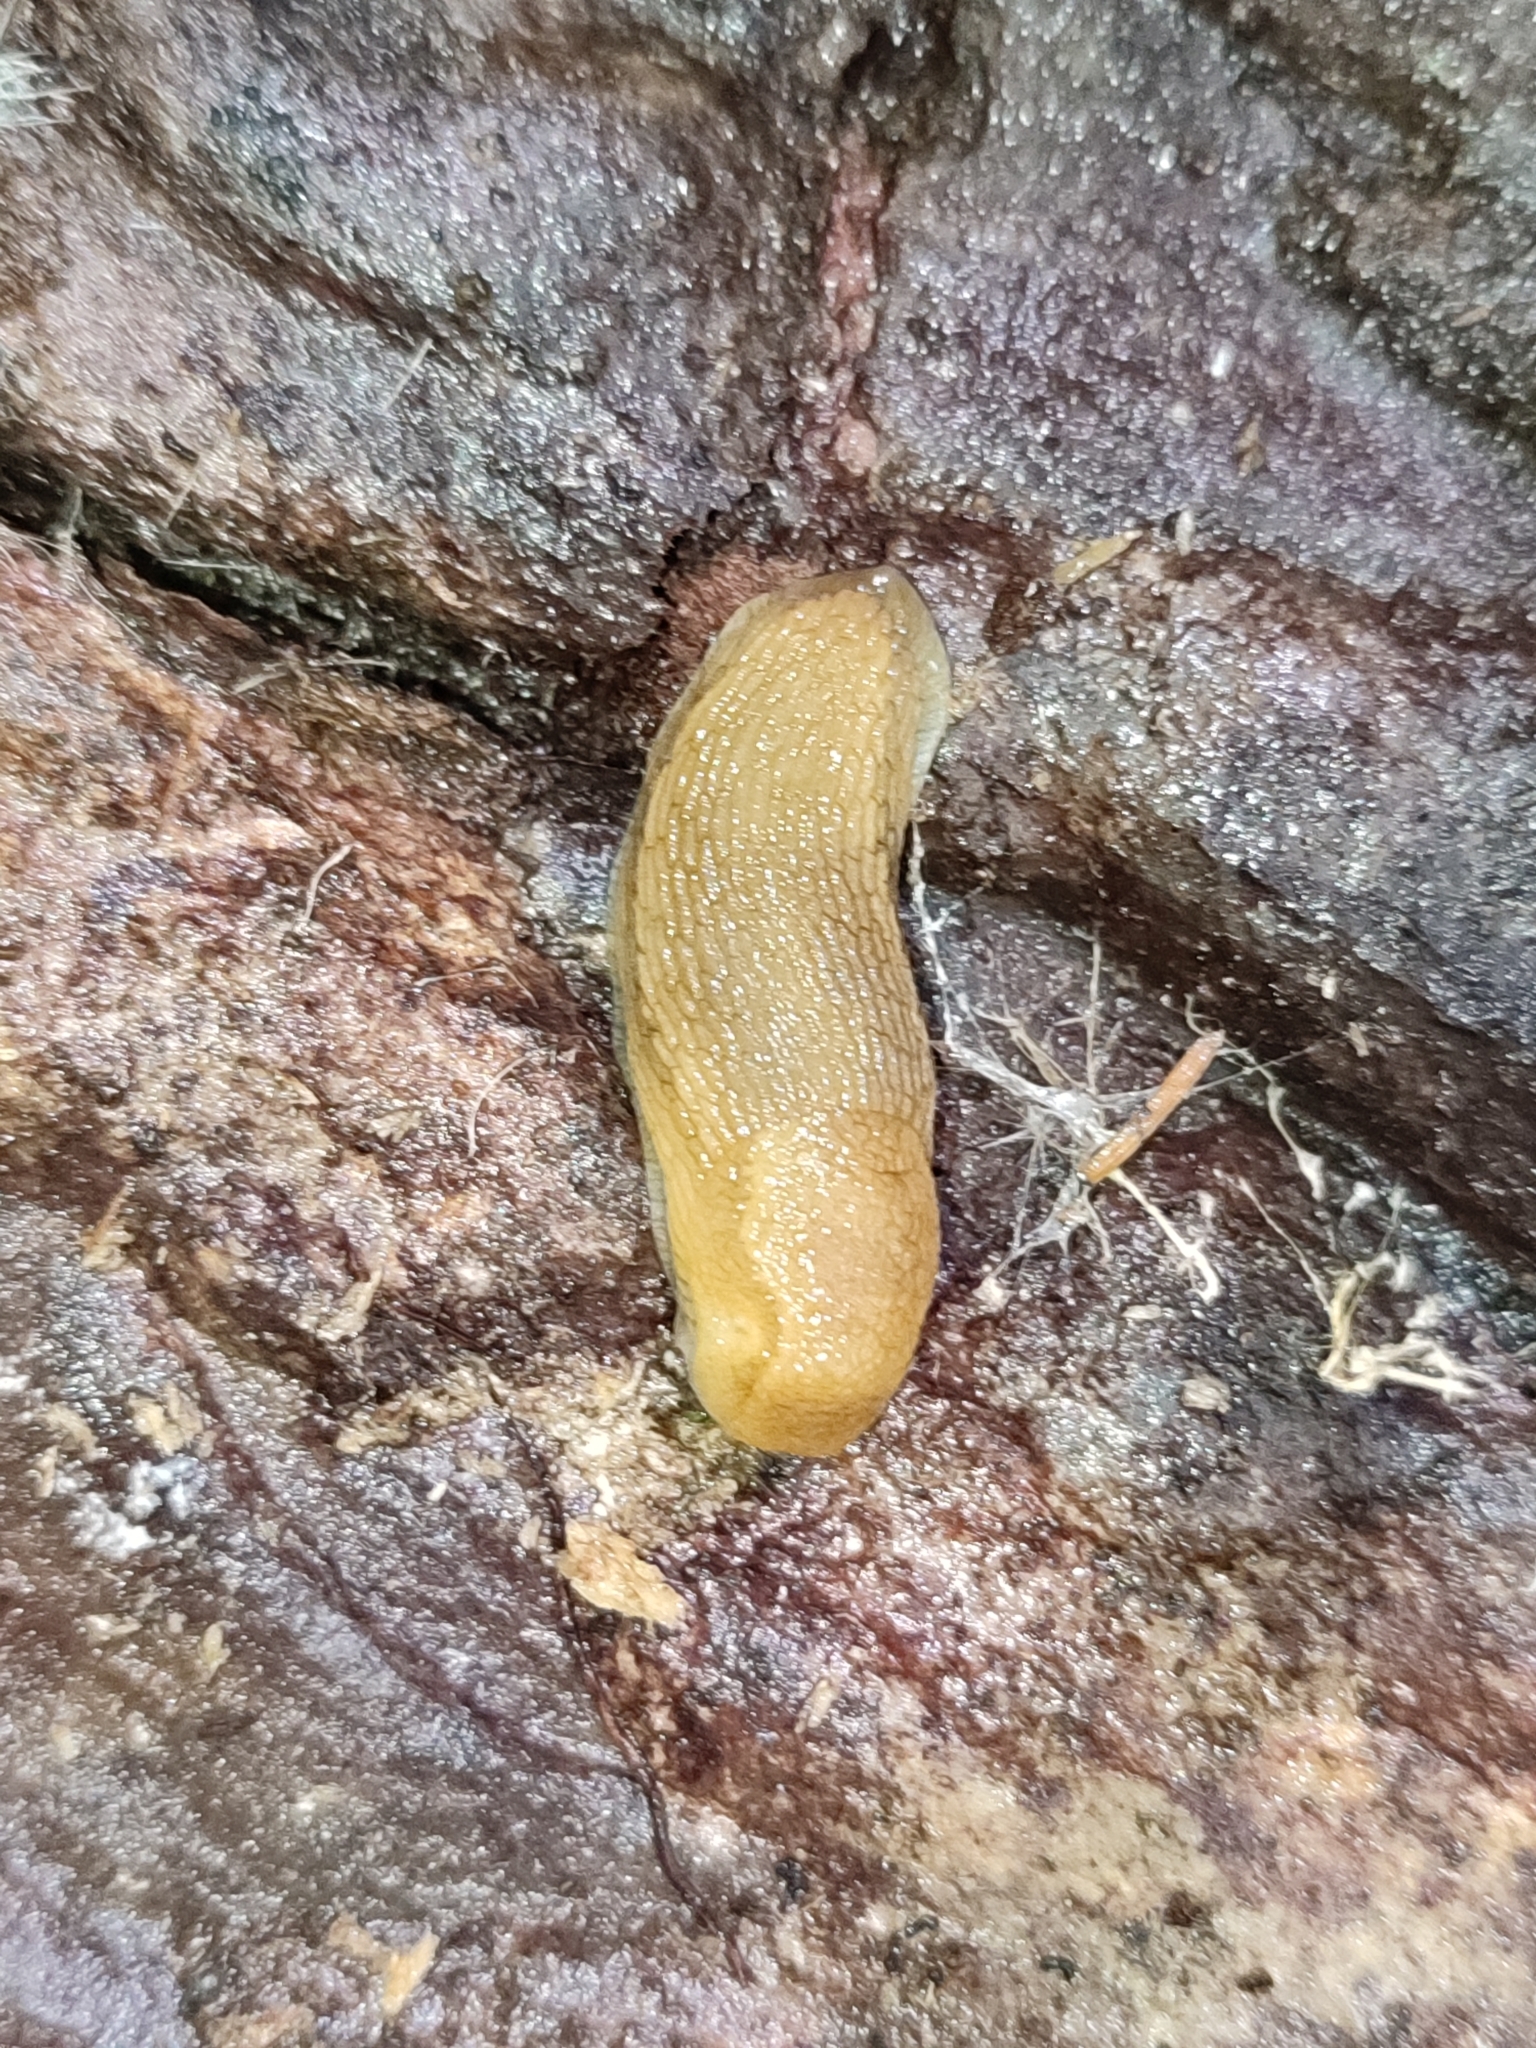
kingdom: Animalia
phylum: Mollusca
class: Gastropoda
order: Stylommatophora
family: Arionidae
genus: Arion
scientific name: Arion fuscus
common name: Northern dusky slug
